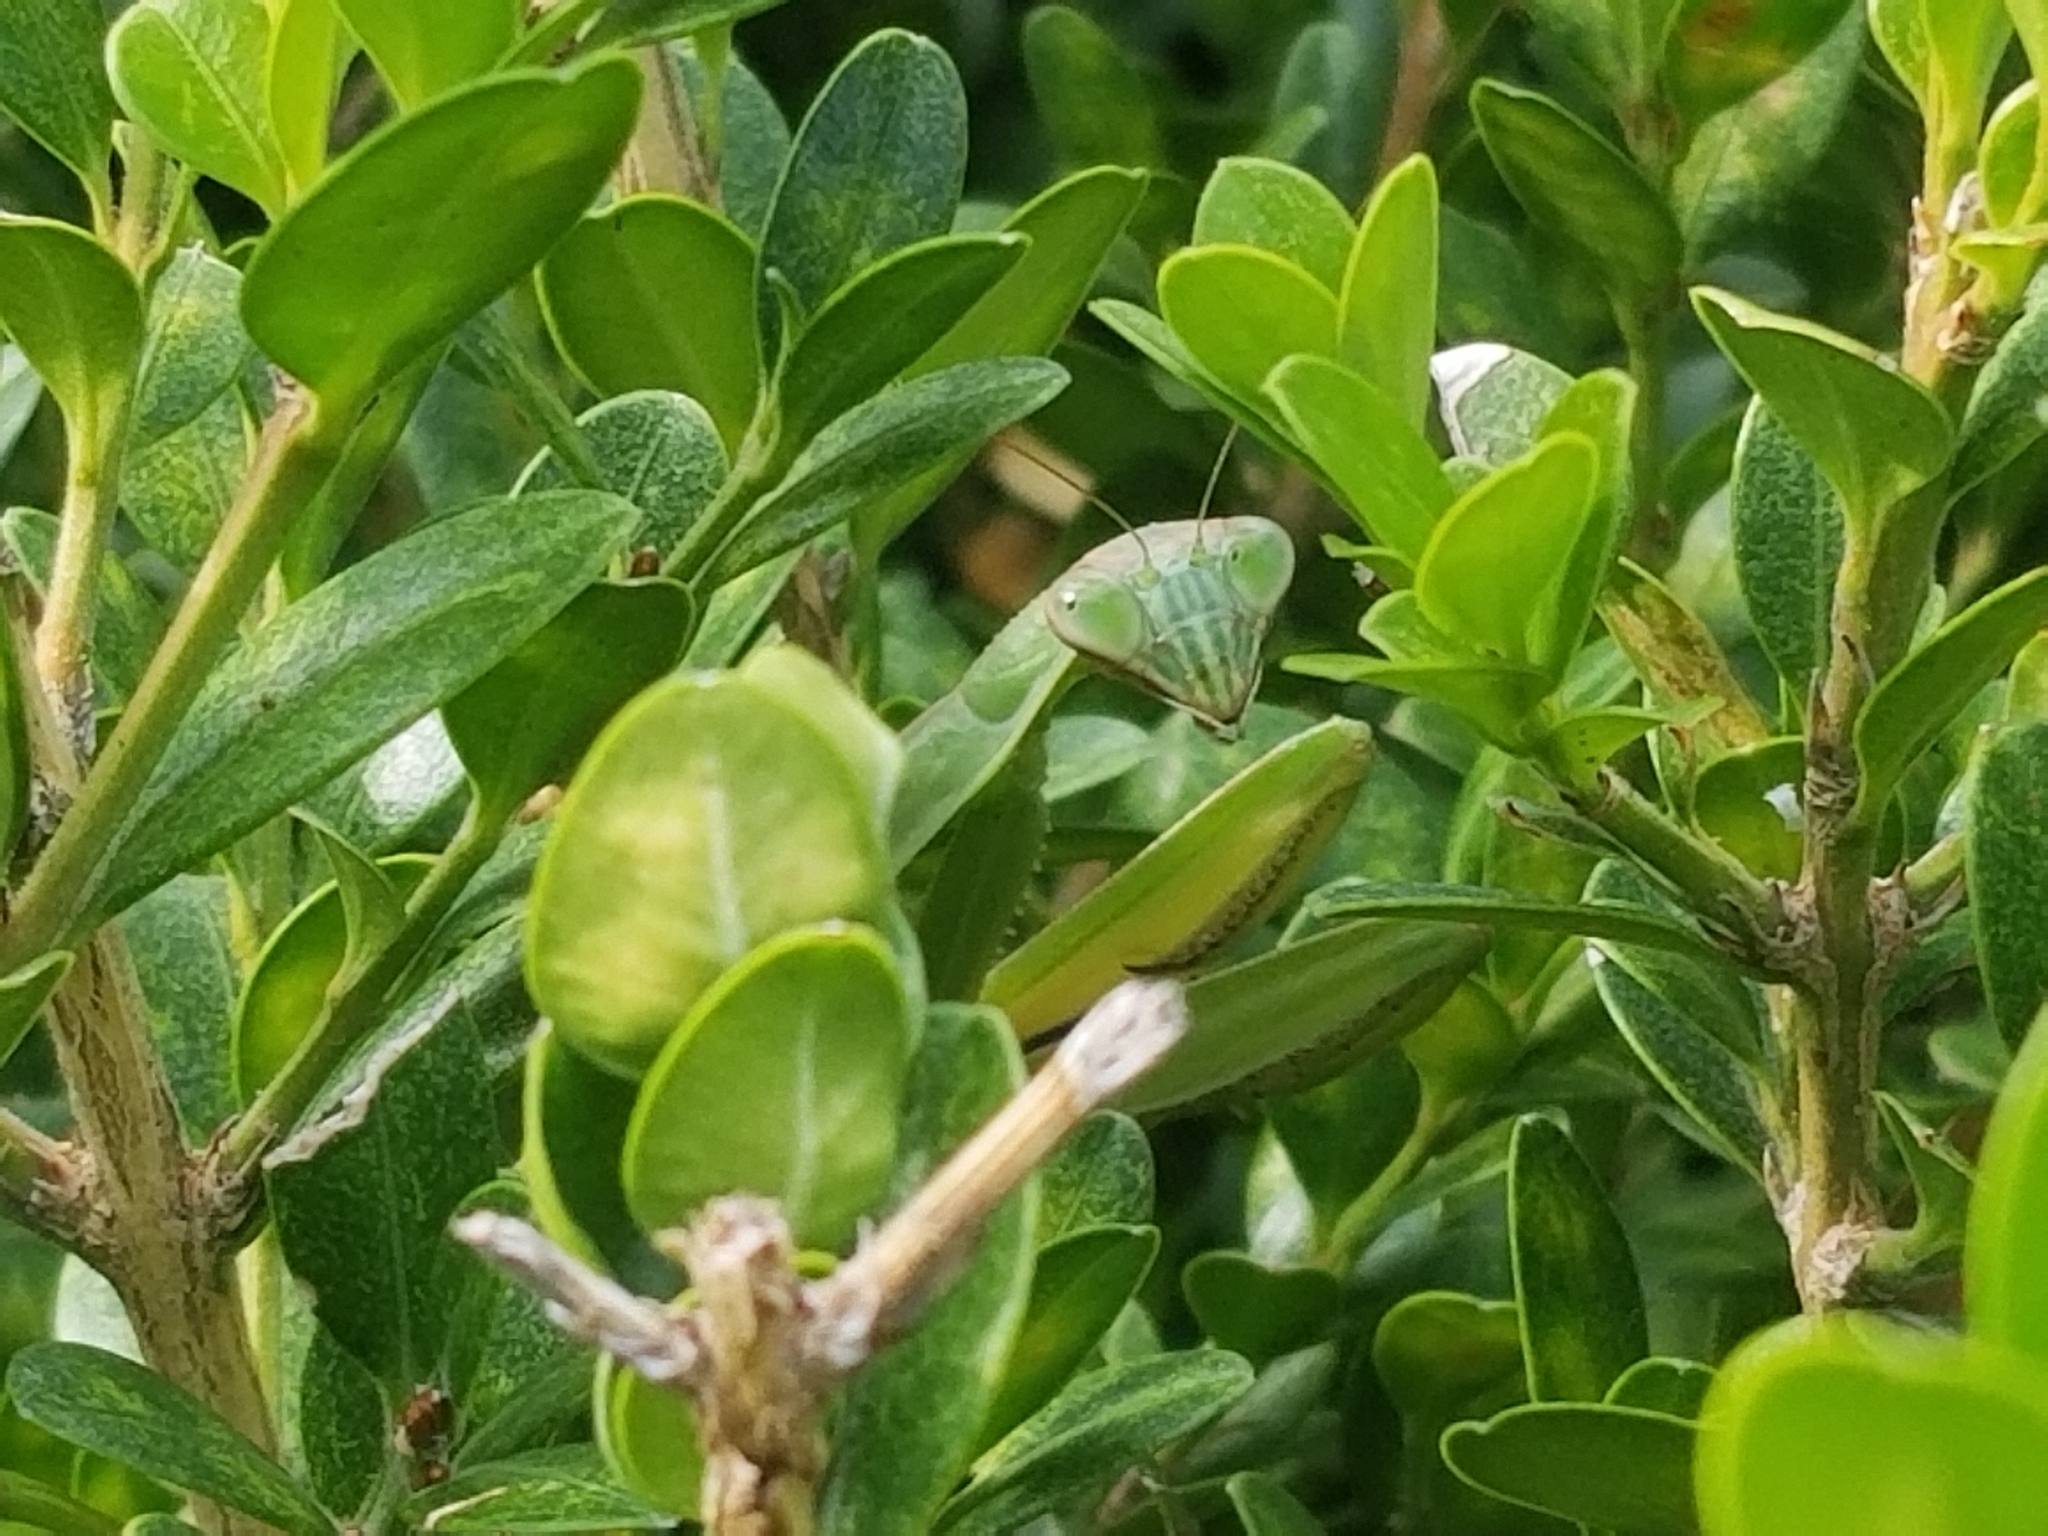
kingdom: Animalia
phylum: Arthropoda
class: Insecta
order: Mantodea
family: Mantidae
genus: Tenodera
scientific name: Tenodera sinensis
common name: Chinese mantis
